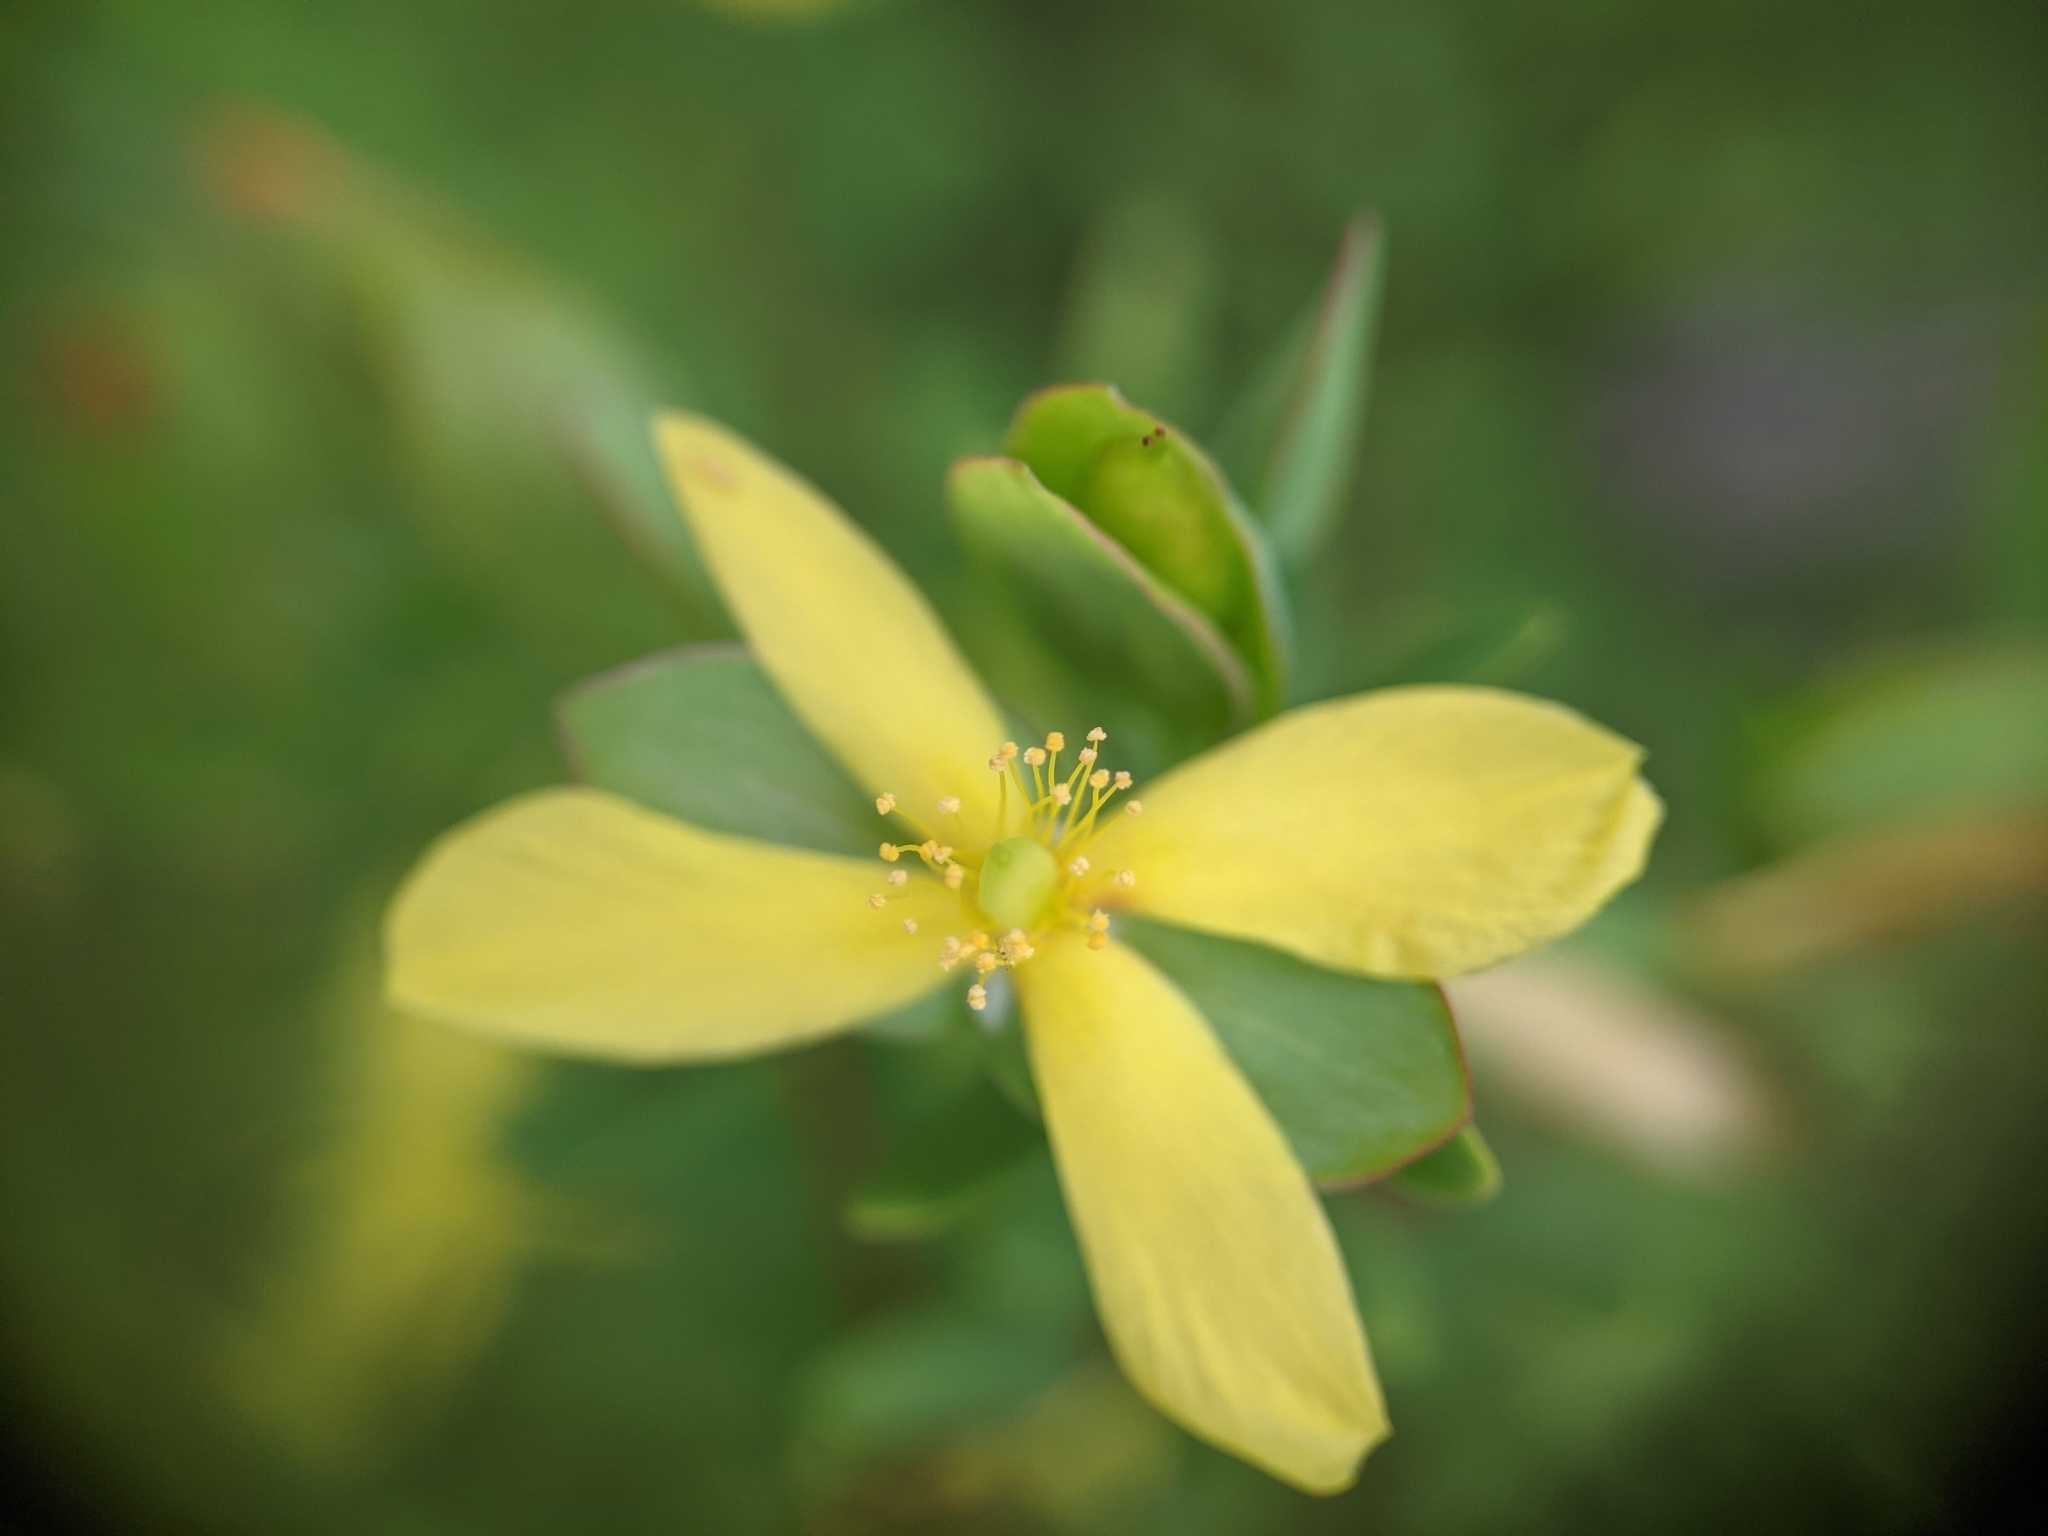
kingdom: Plantae
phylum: Tracheophyta
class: Magnoliopsida
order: Malpighiales
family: Hypericaceae
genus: Hypericum
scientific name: Hypericum hypericoides
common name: St. andrew's cross
